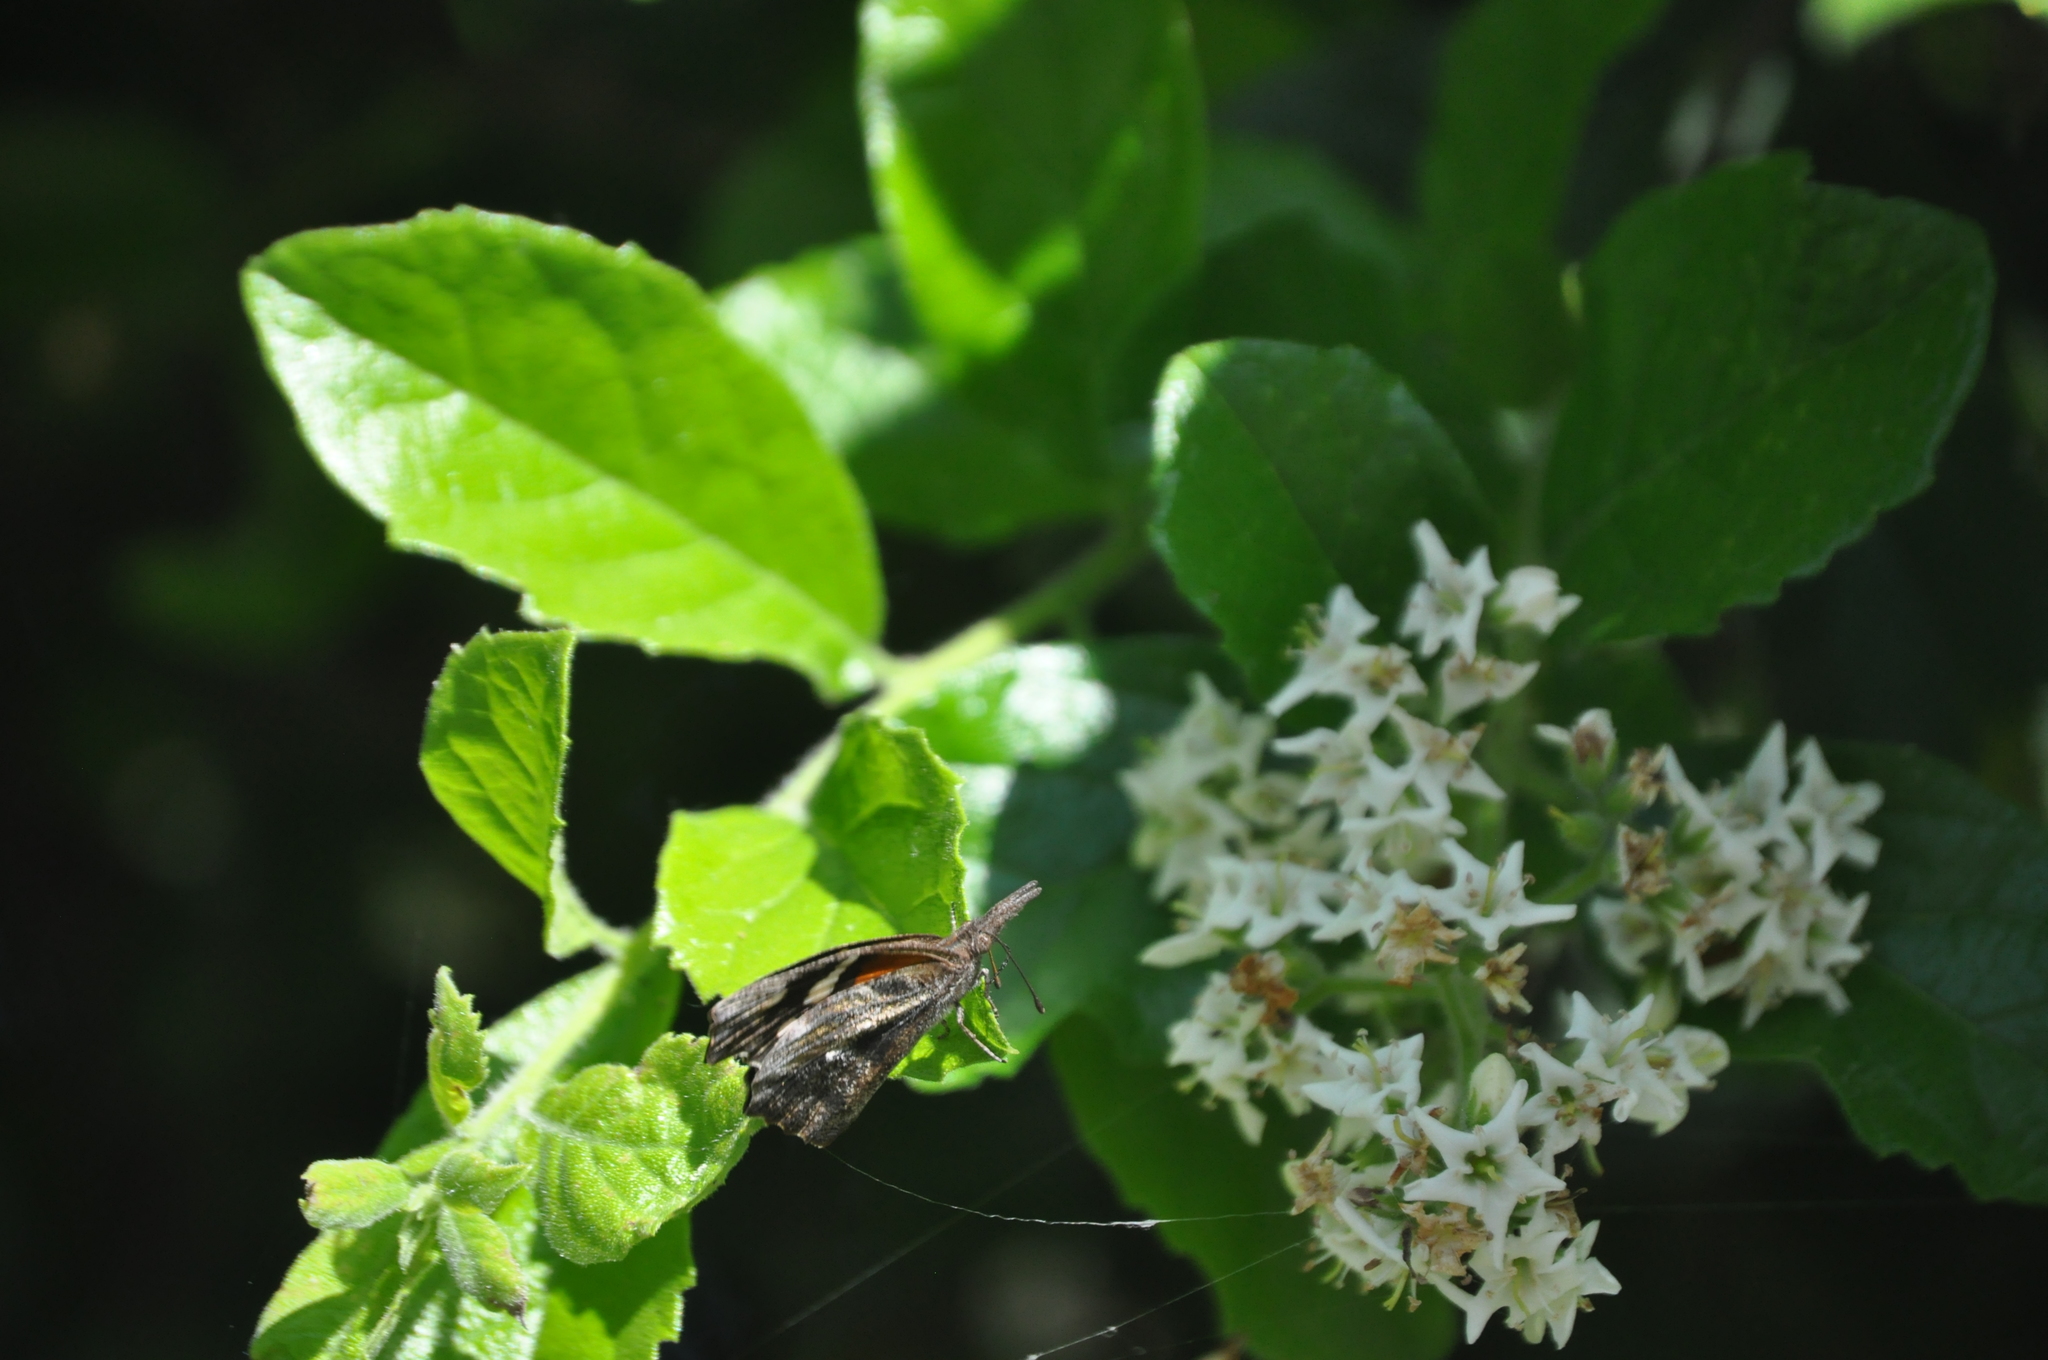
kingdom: Animalia
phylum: Arthropoda
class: Insecta
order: Lepidoptera
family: Nymphalidae
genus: Libytheana
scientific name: Libytheana carinenta
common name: American snout
